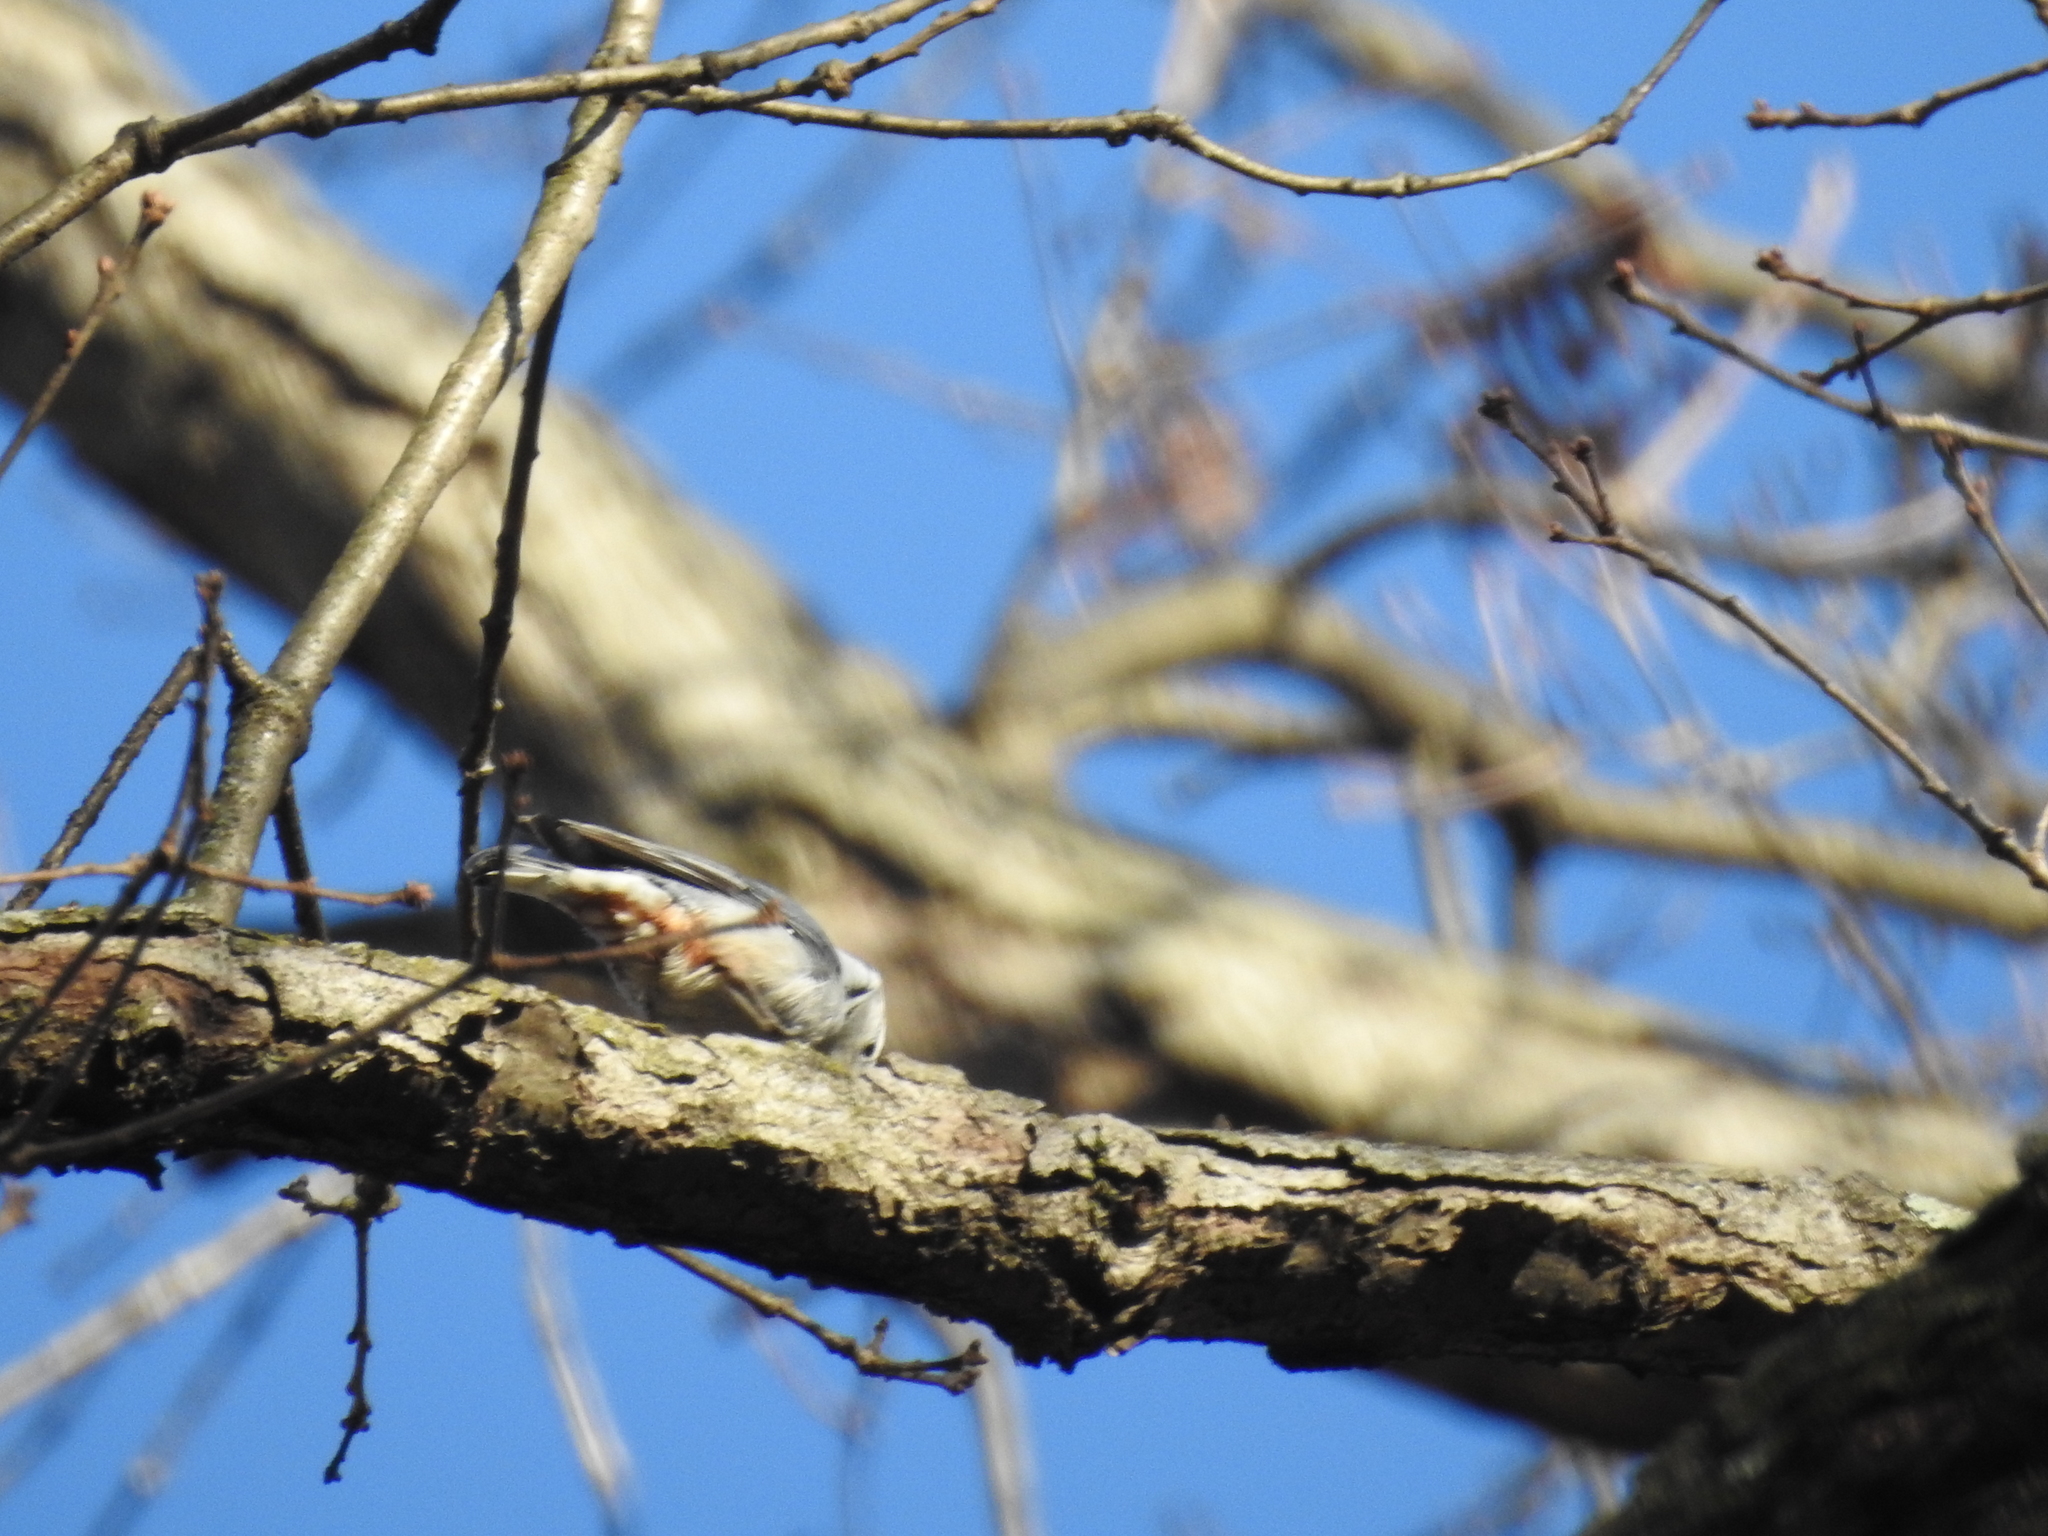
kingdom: Animalia
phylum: Chordata
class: Aves
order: Passeriformes
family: Sittidae
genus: Sitta
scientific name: Sitta carolinensis
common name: White-breasted nuthatch
